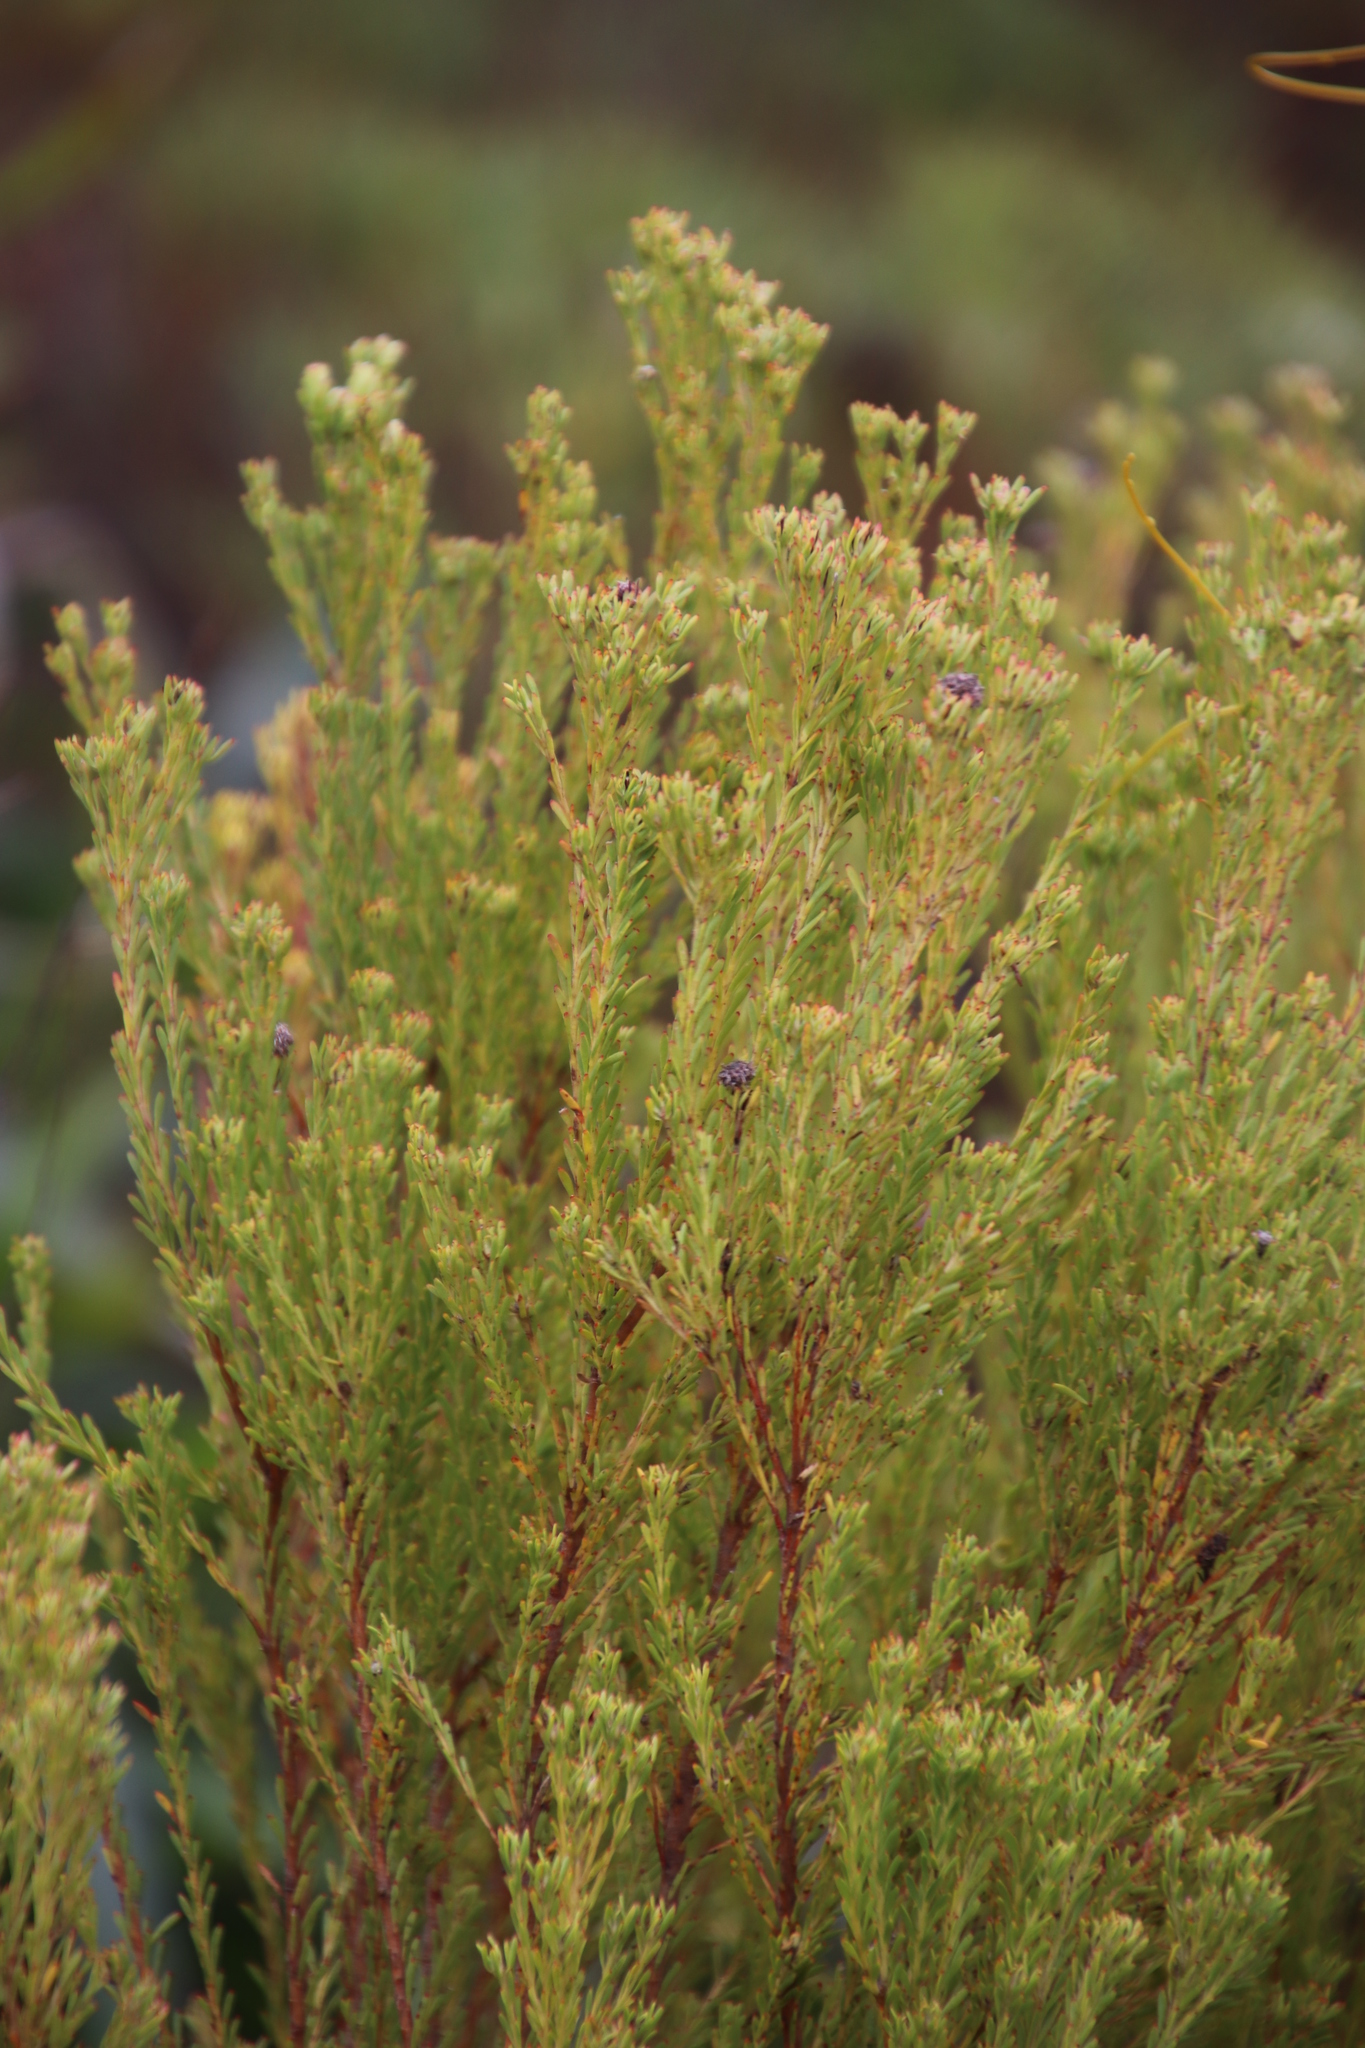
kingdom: Plantae
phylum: Tracheophyta
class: Magnoliopsida
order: Proteales
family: Proteaceae
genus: Leucadendron
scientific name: Leucadendron
